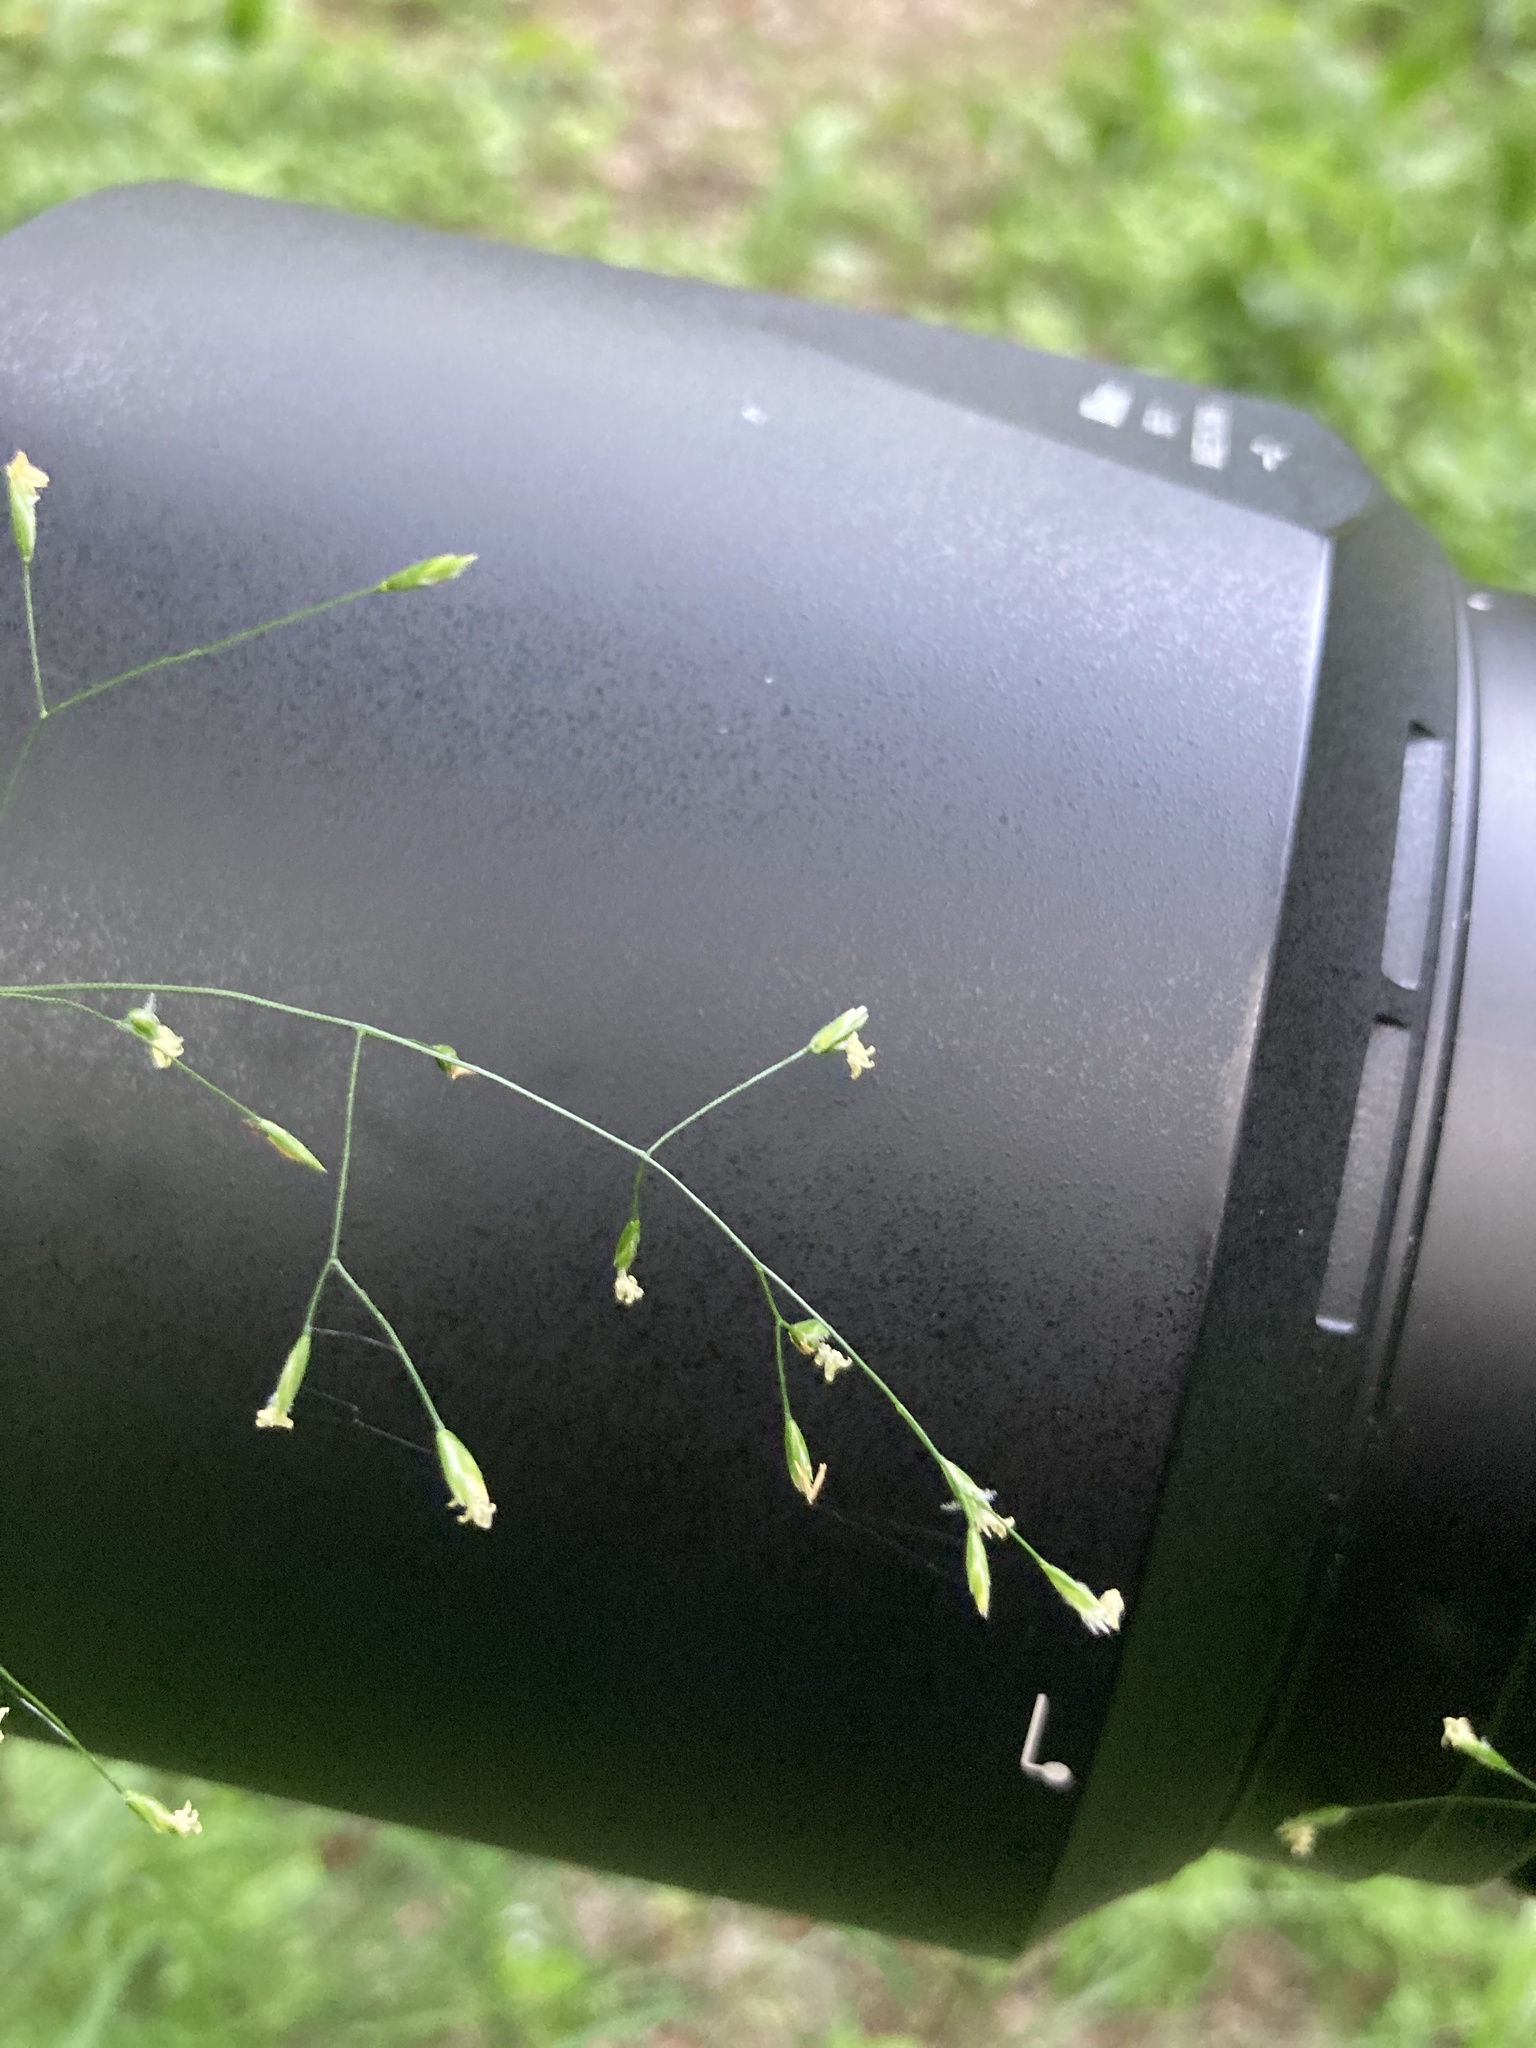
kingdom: Plantae
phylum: Tracheophyta
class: Liliopsida
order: Poales
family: Poaceae
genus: Poa
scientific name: Poa palustris
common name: Swamp meadow-grass
